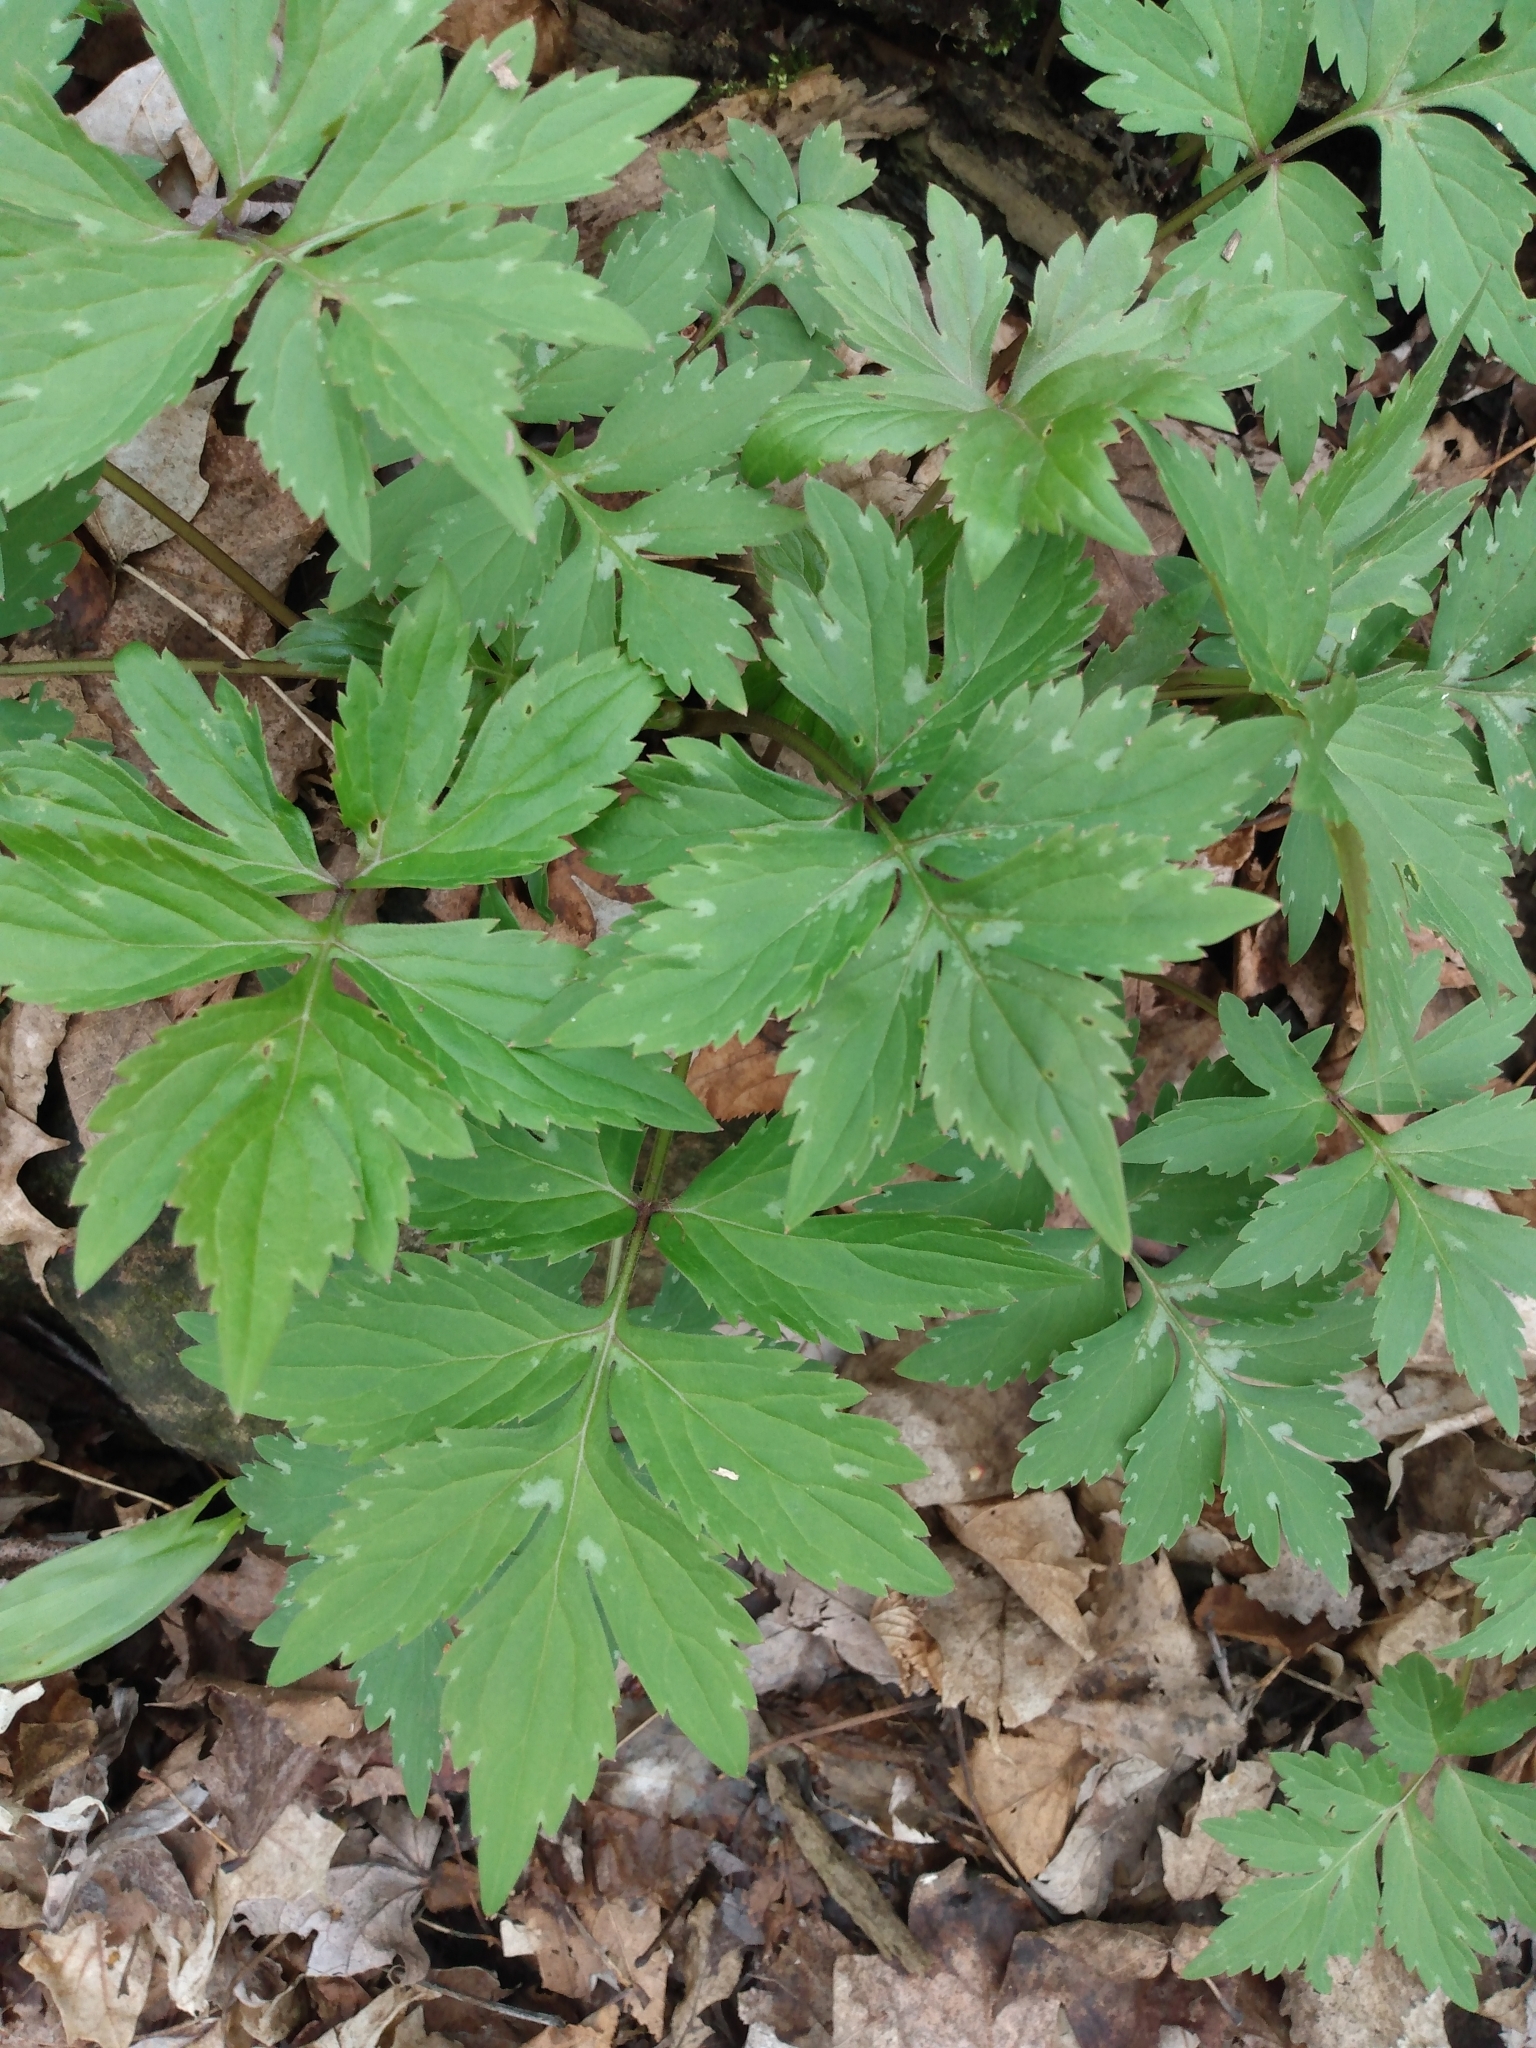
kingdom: Plantae
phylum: Tracheophyta
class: Magnoliopsida
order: Boraginales
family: Hydrophyllaceae
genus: Hydrophyllum
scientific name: Hydrophyllum virginianum
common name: Virginia waterleaf
